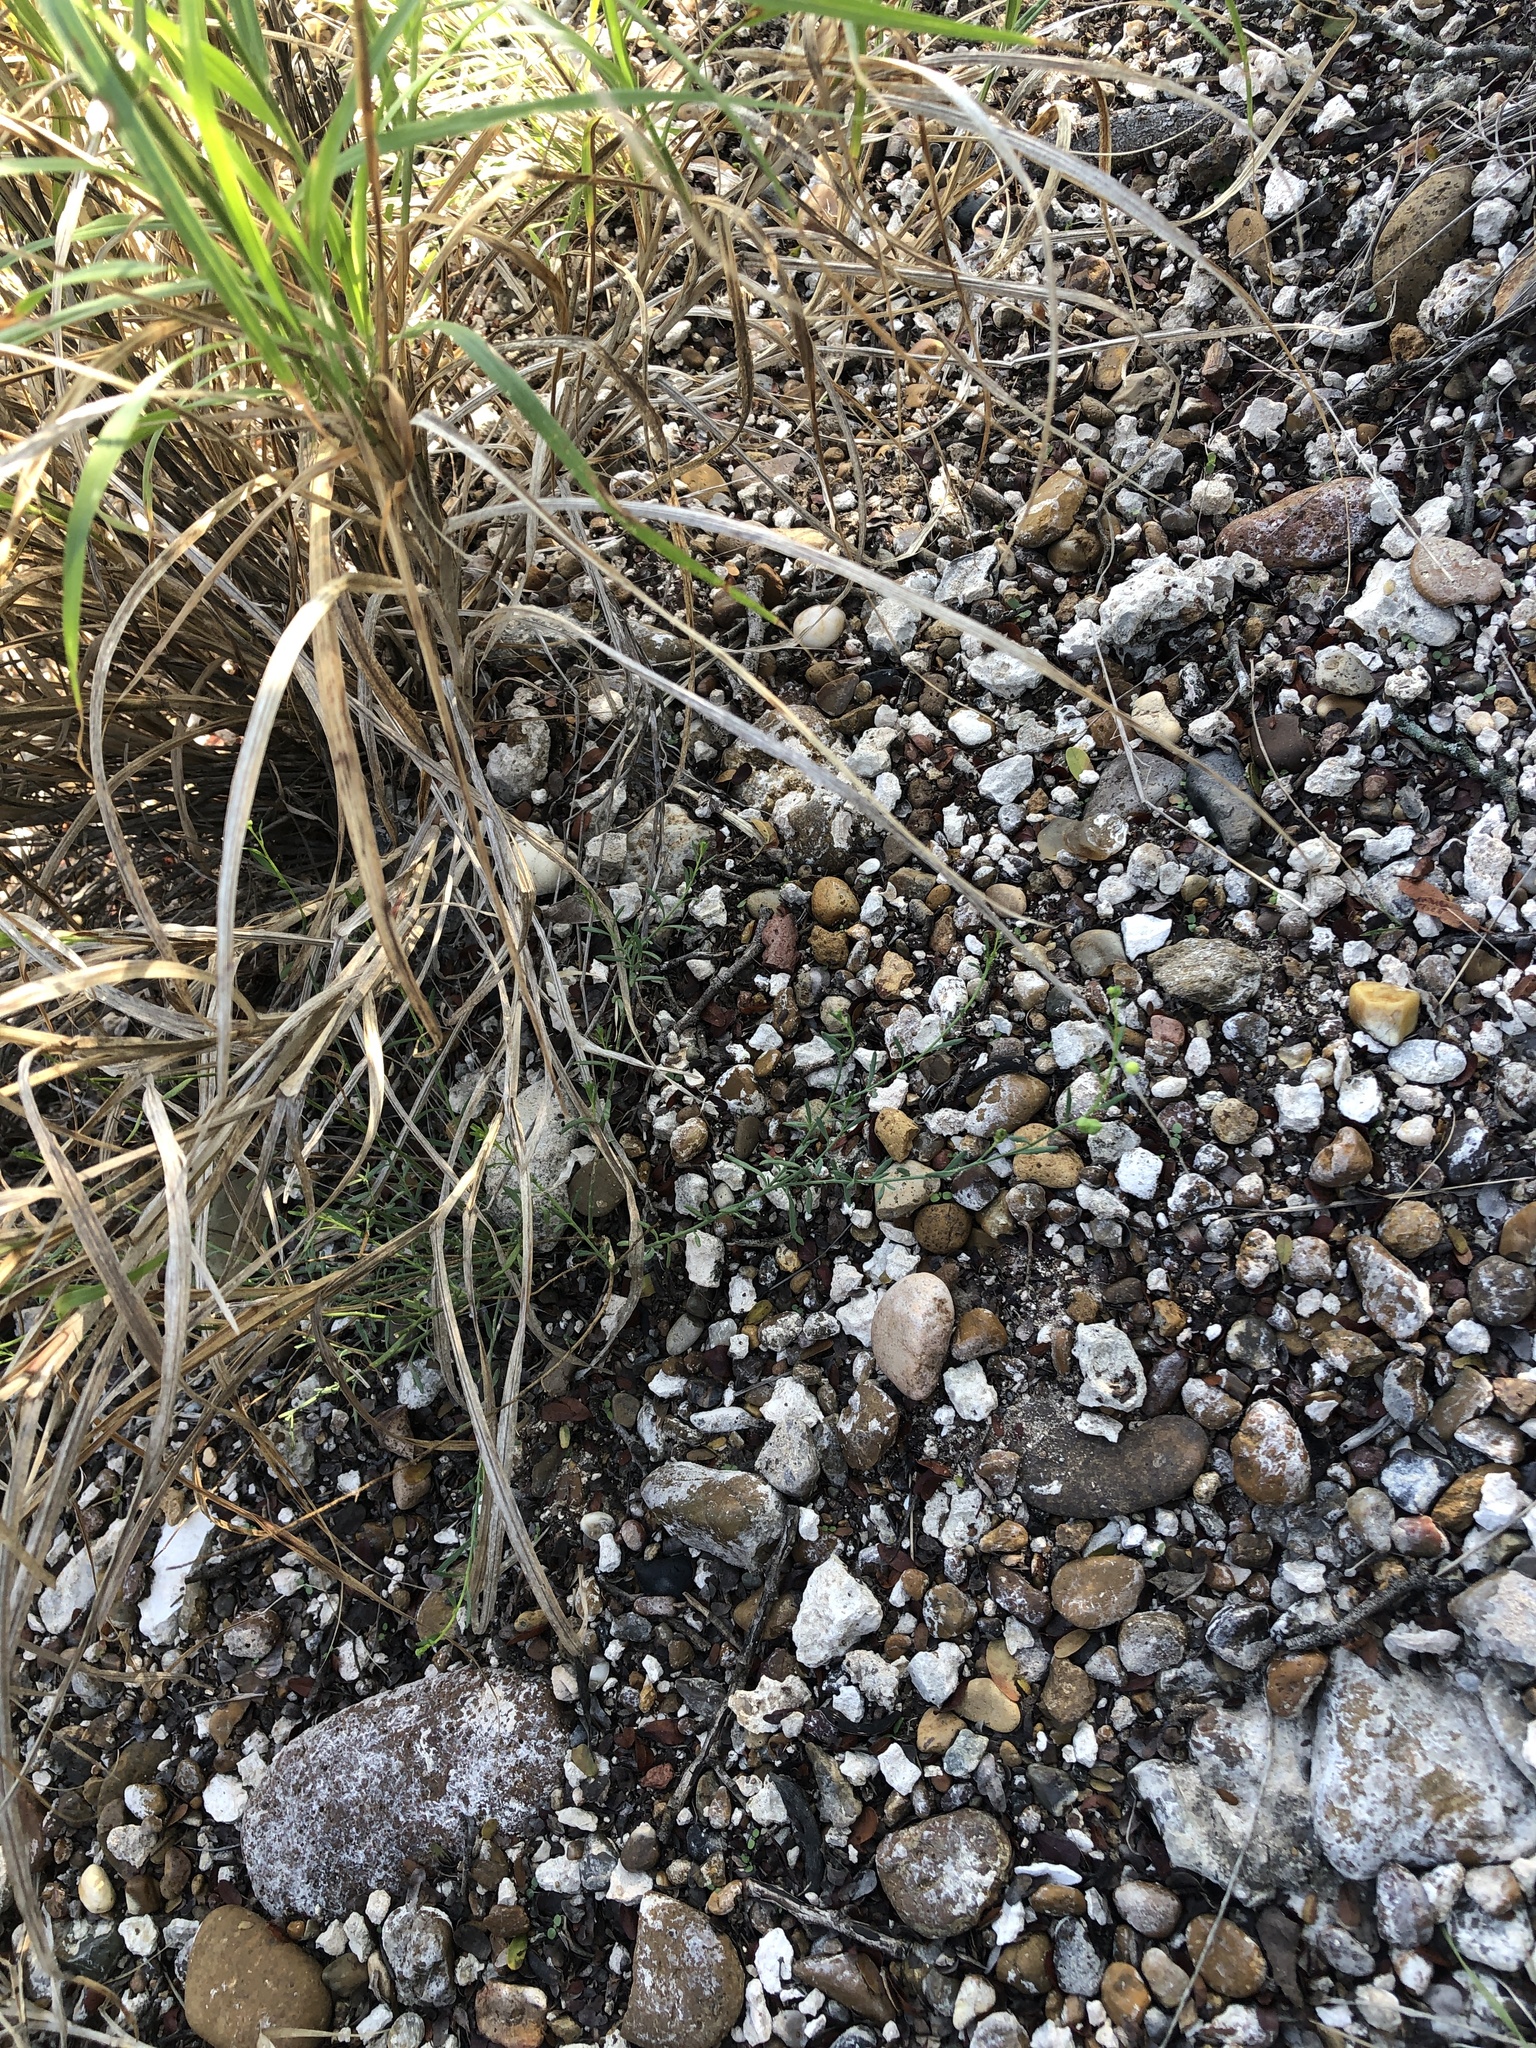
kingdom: Plantae
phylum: Tracheophyta
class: Magnoliopsida
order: Sapindales
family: Rutaceae
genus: Thamnosma
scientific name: Thamnosma texana
